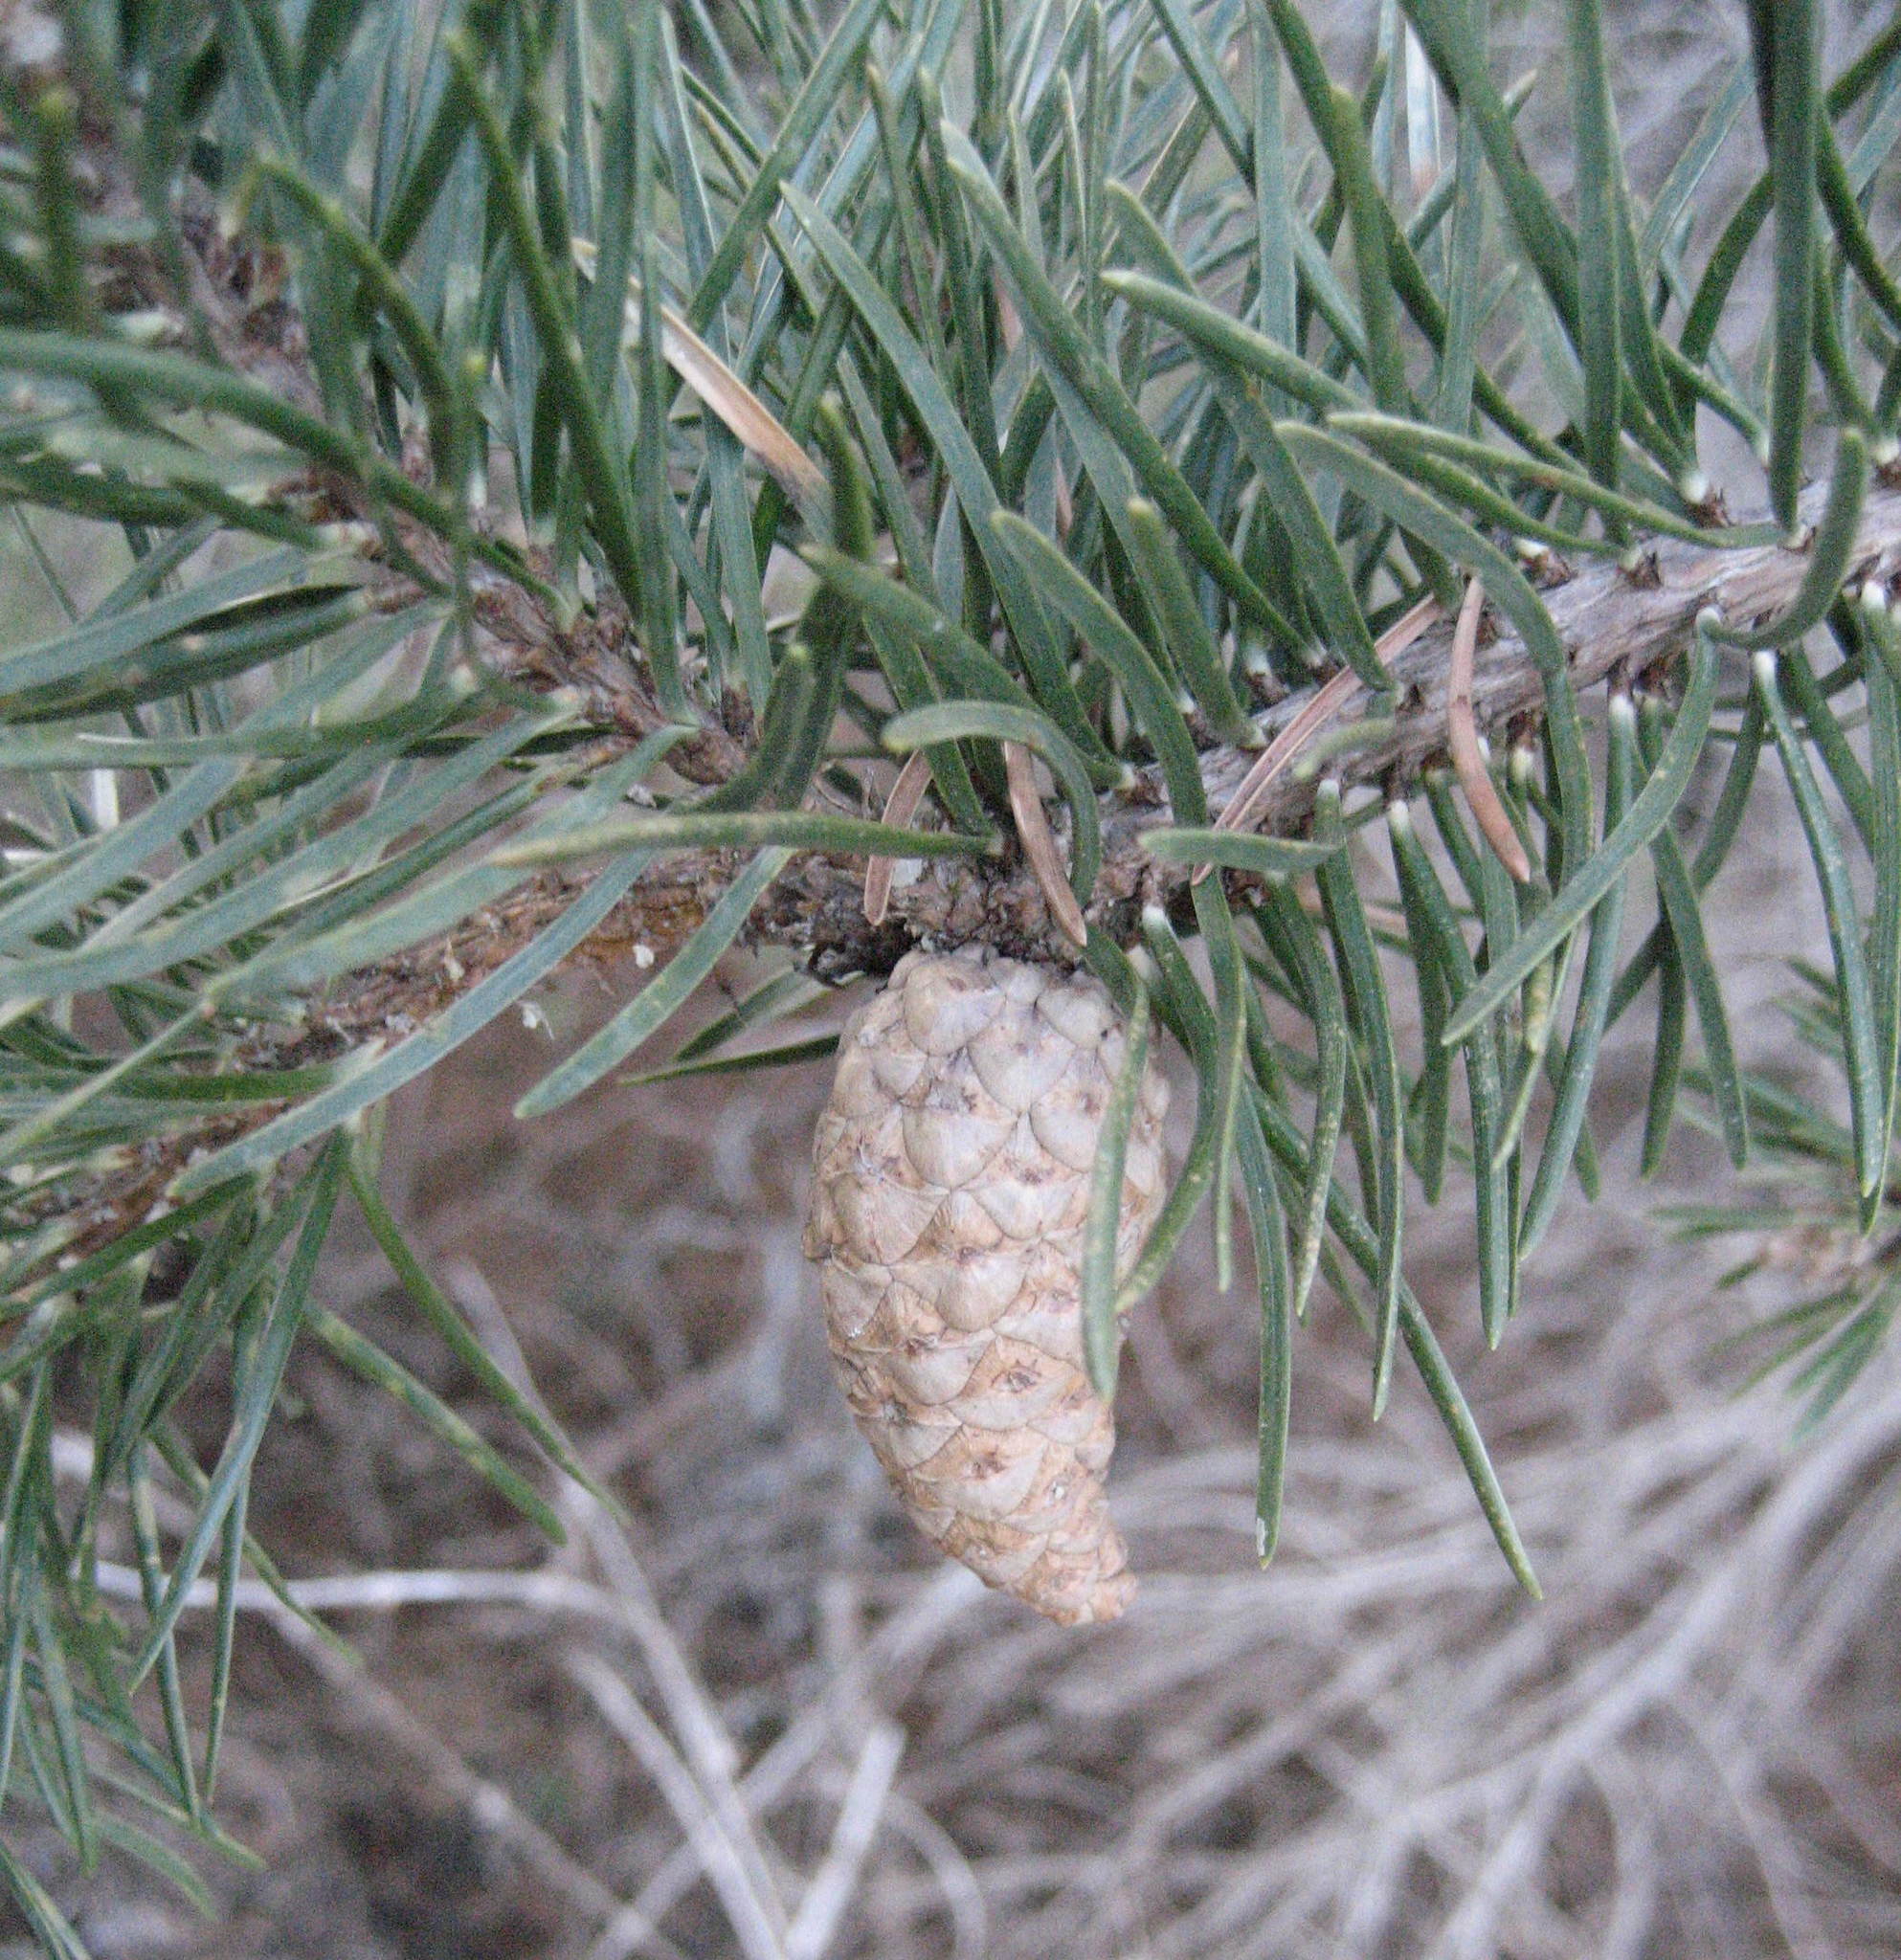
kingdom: Plantae
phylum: Tracheophyta
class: Pinopsida
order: Pinales
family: Pinaceae
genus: Pinus
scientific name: Pinus banksiana
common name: Jack pine
